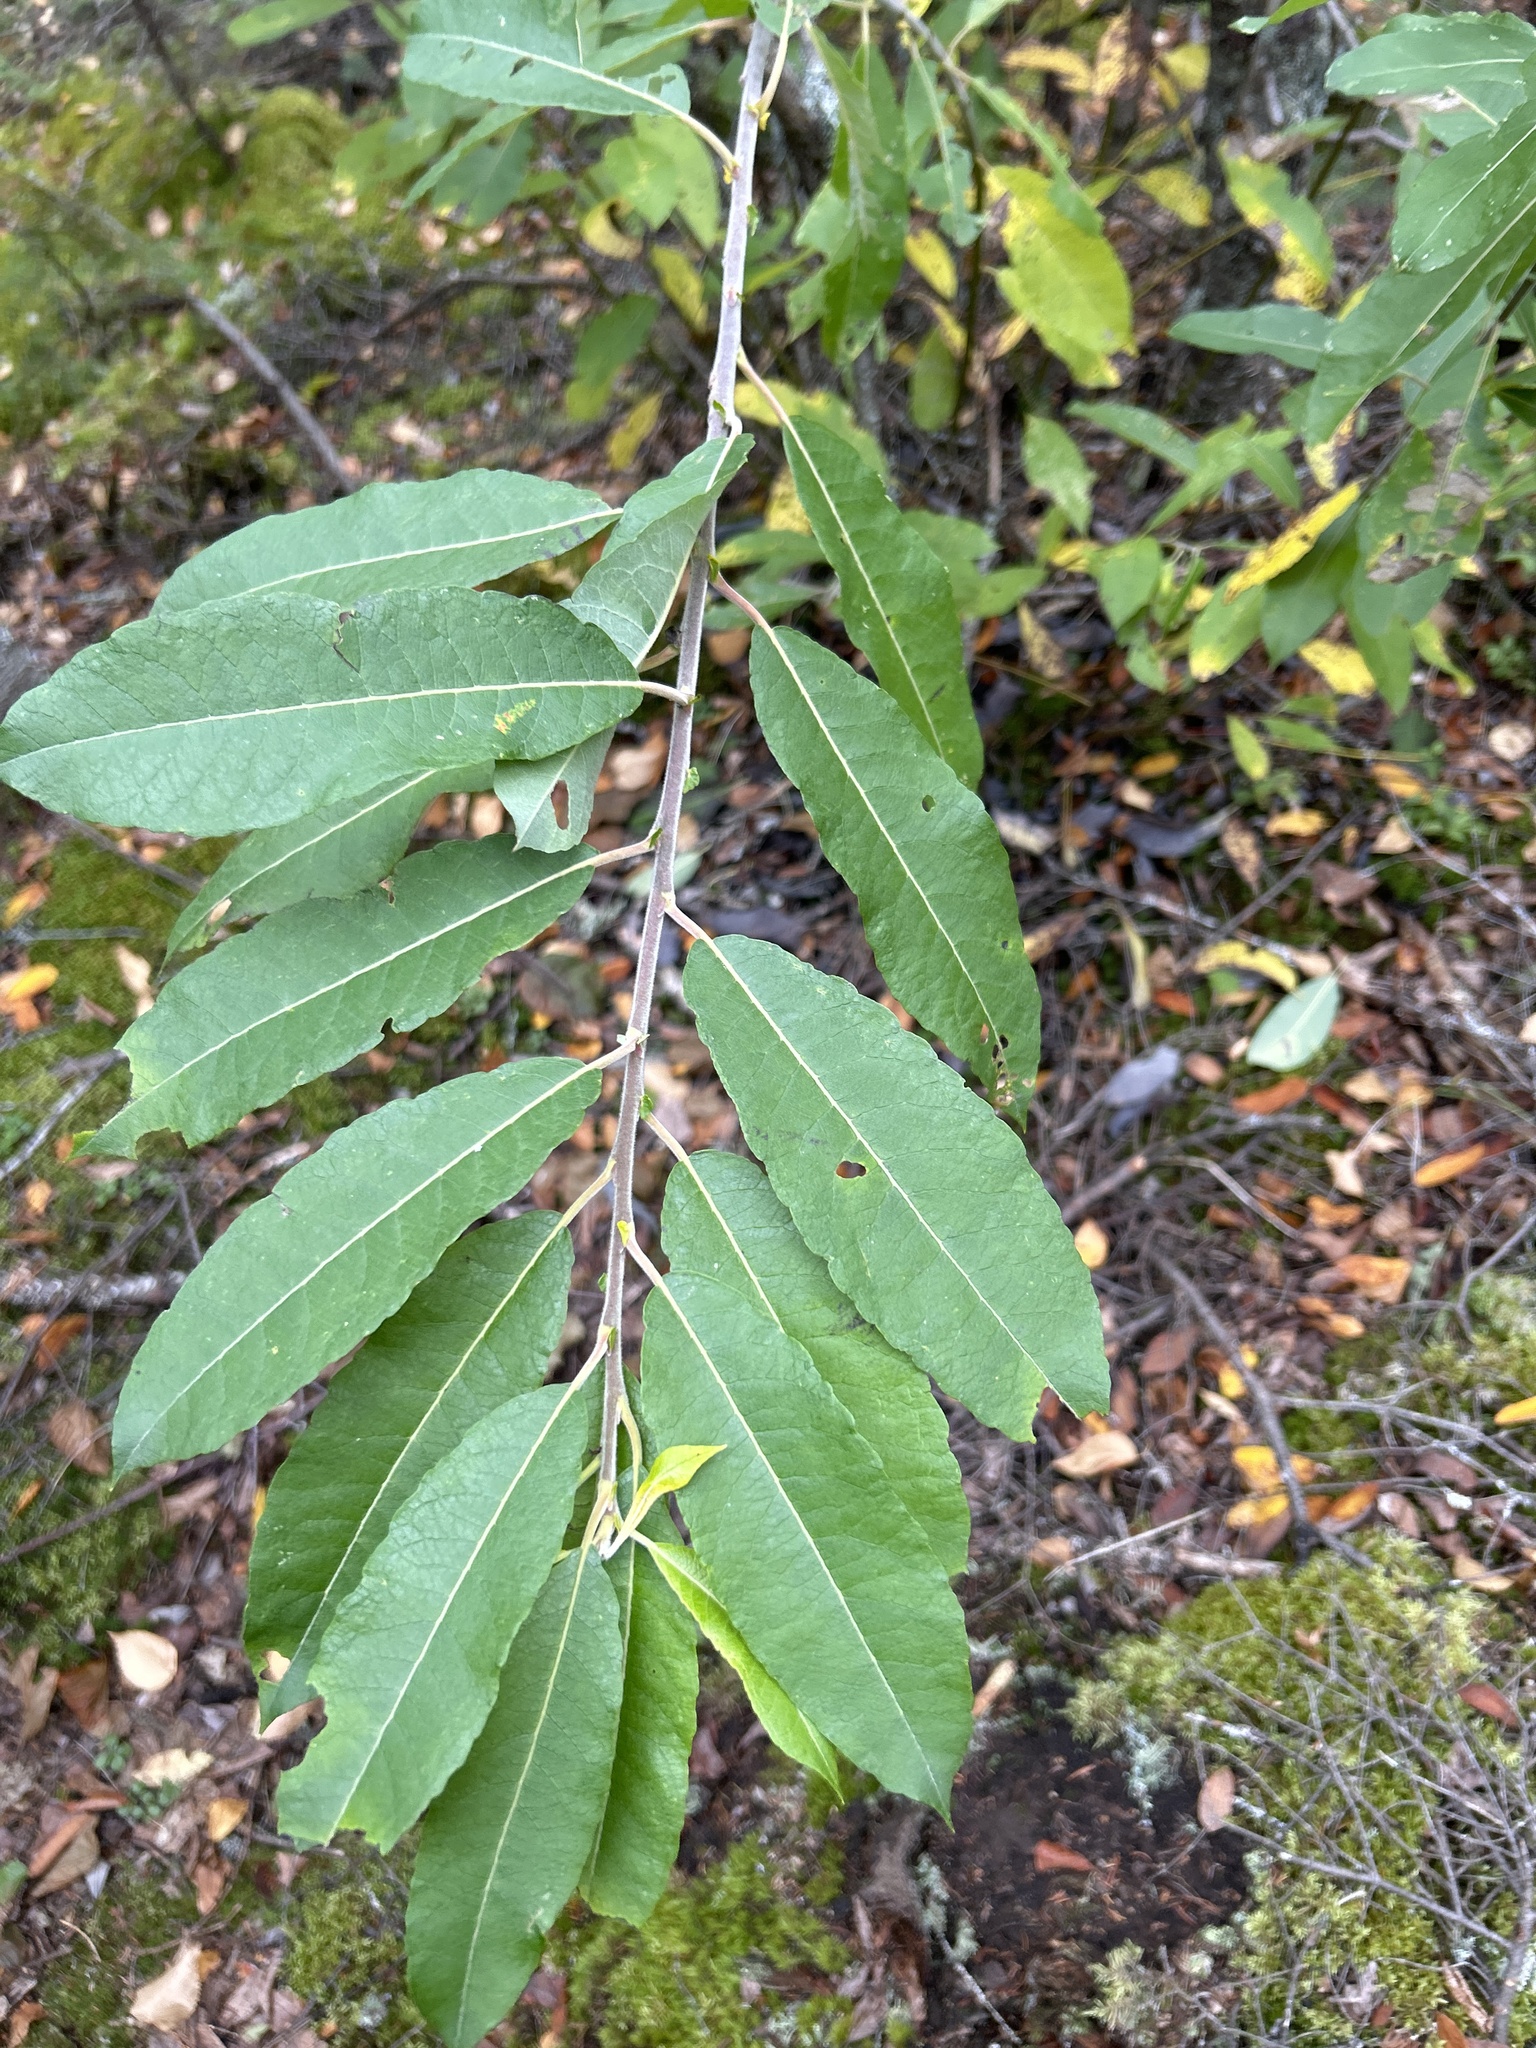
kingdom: Plantae
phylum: Tracheophyta
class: Magnoliopsida
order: Malpighiales
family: Salicaceae
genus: Salix
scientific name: Salix humilis
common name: Prairie willow
